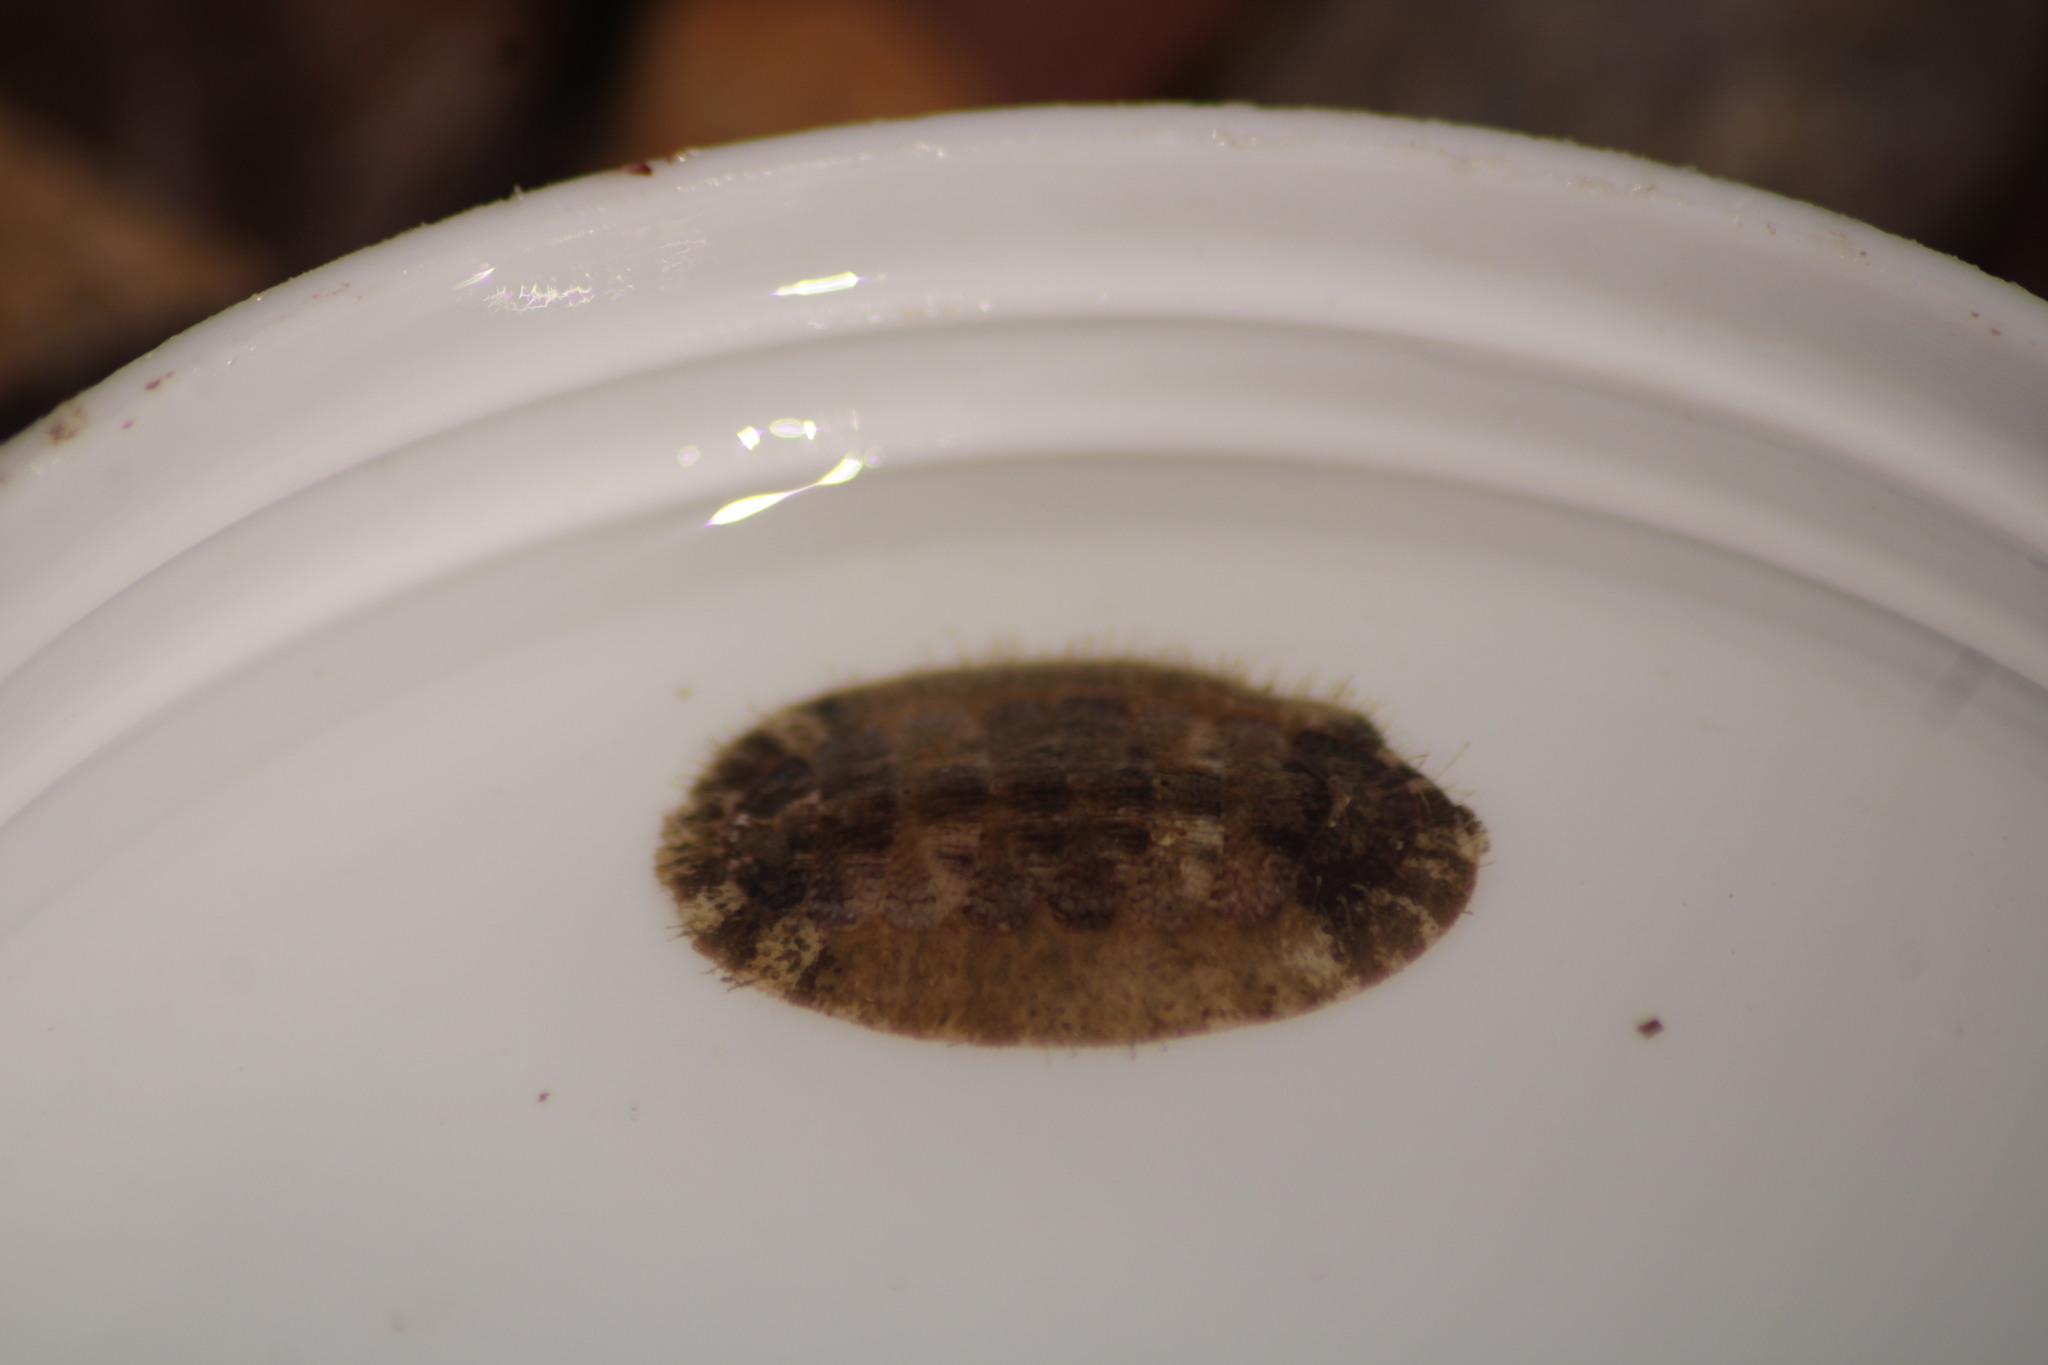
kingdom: Animalia
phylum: Mollusca
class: Polyplacophora
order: Chitonida
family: Chaetopleuridae
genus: Chaetopleura
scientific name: Chaetopleura lurida
